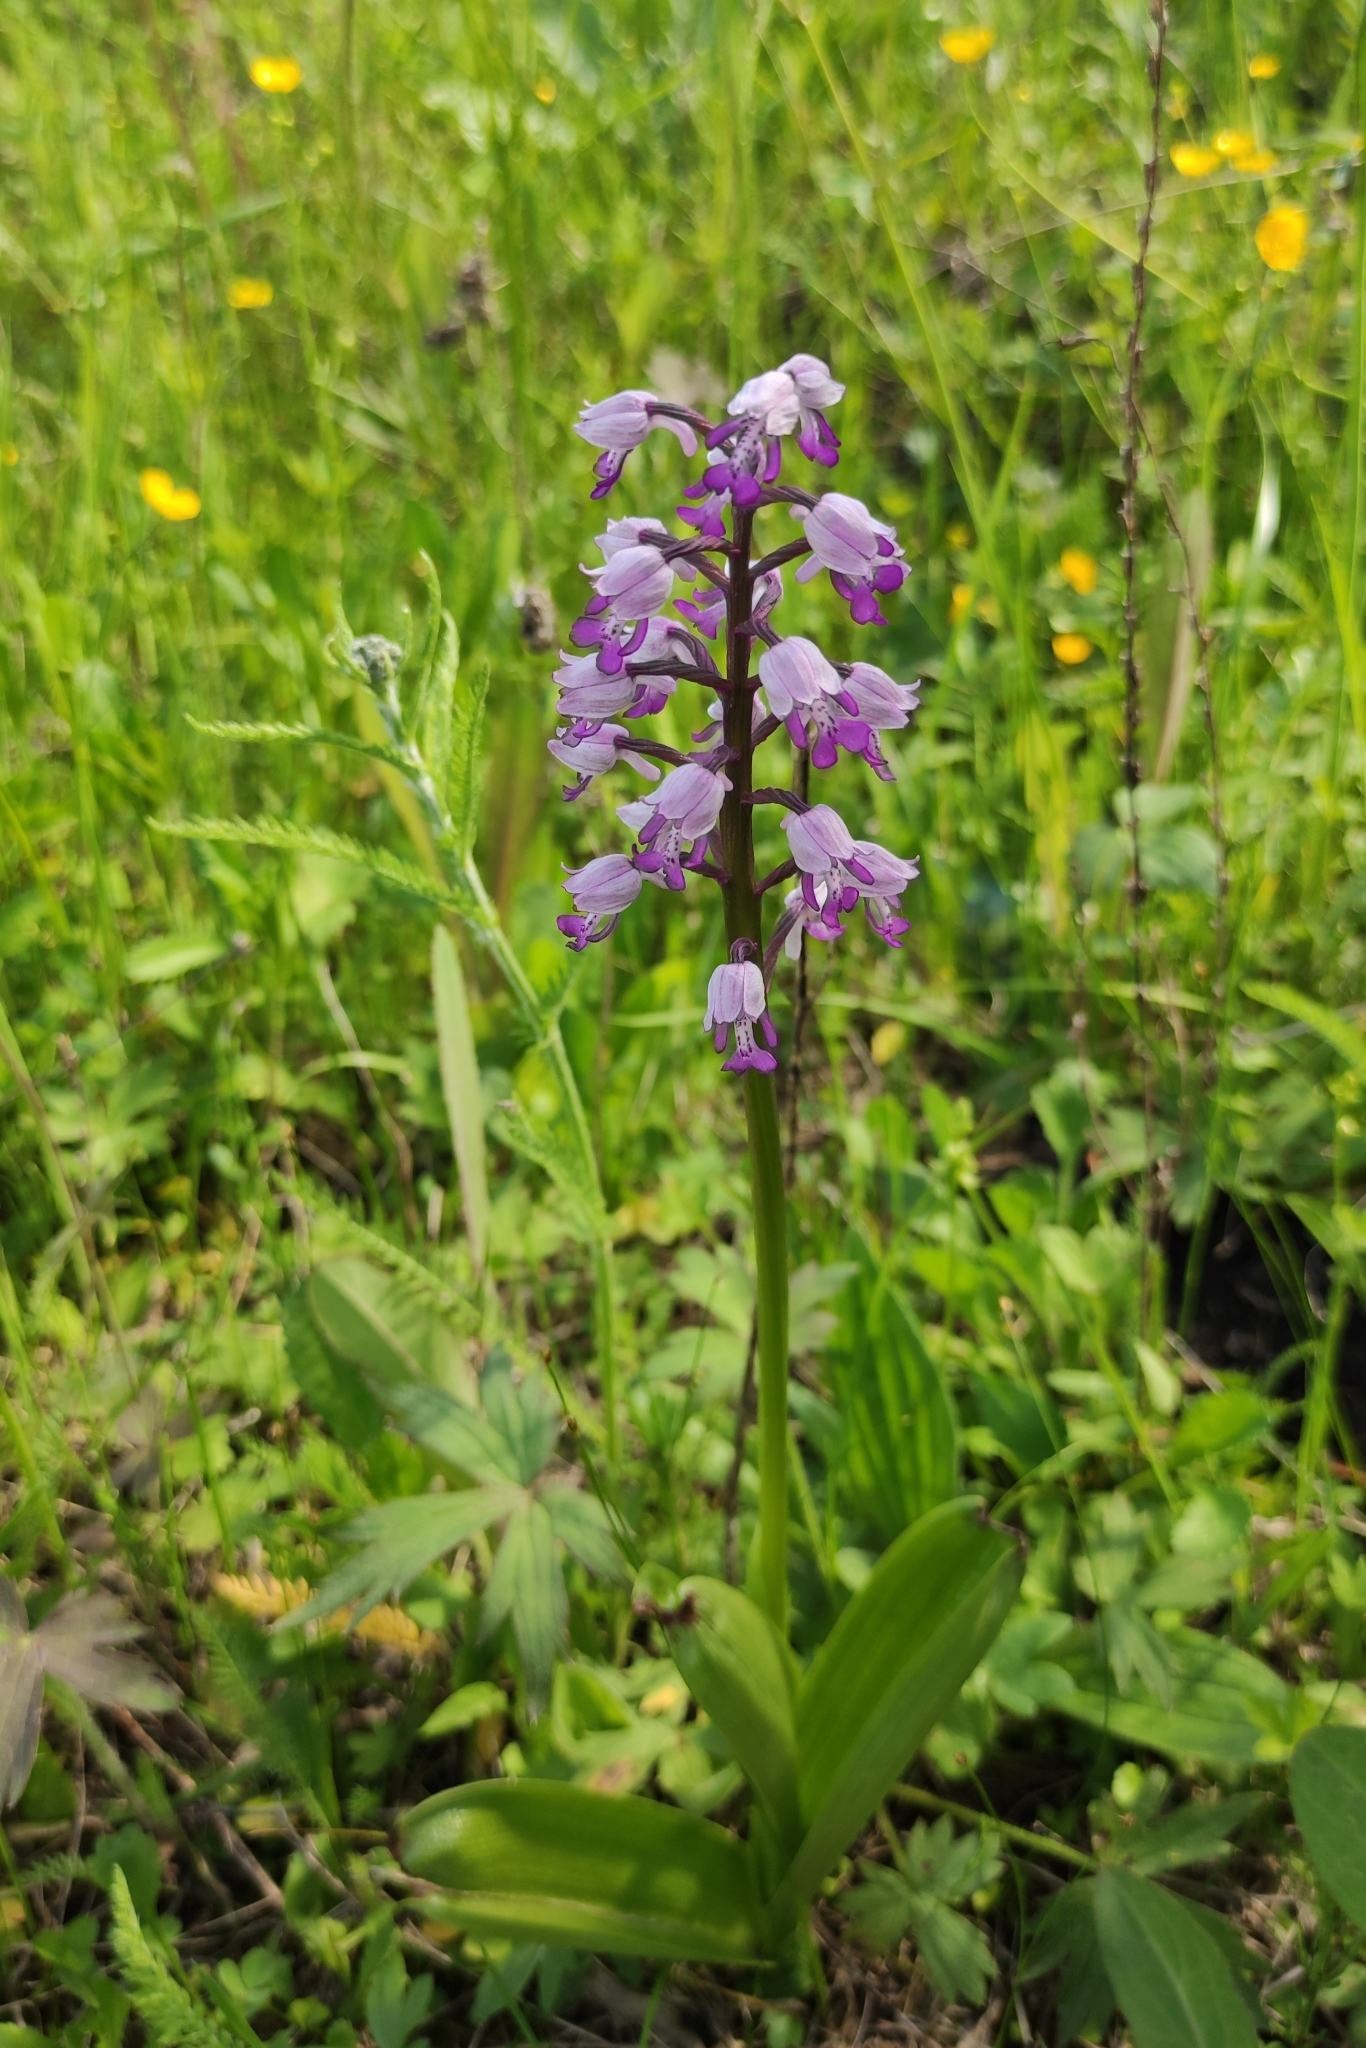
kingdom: Plantae
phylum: Tracheophyta
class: Liliopsida
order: Asparagales
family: Orchidaceae
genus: Orchis
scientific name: Orchis militaris
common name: Military orchid
